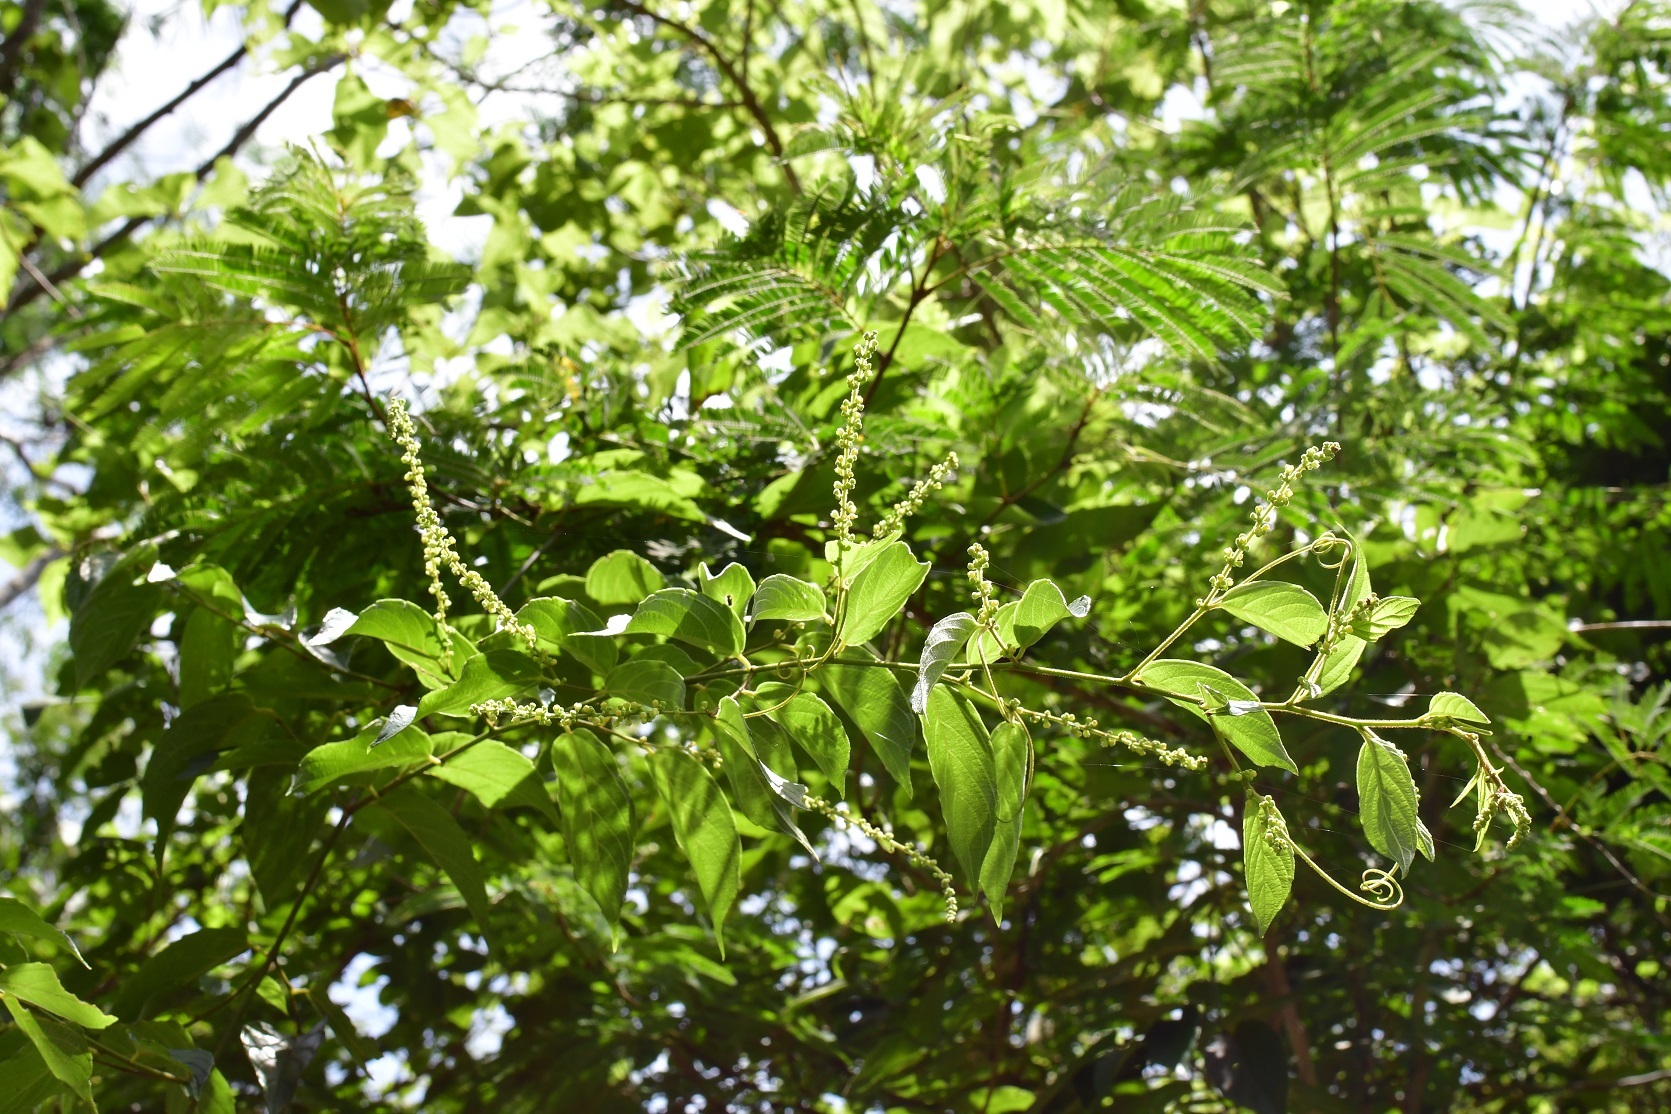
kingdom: Plantae
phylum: Tracheophyta
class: Magnoliopsida
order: Rosales
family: Rhamnaceae
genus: Gouania
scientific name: Gouania lupuloides
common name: Chewstick
